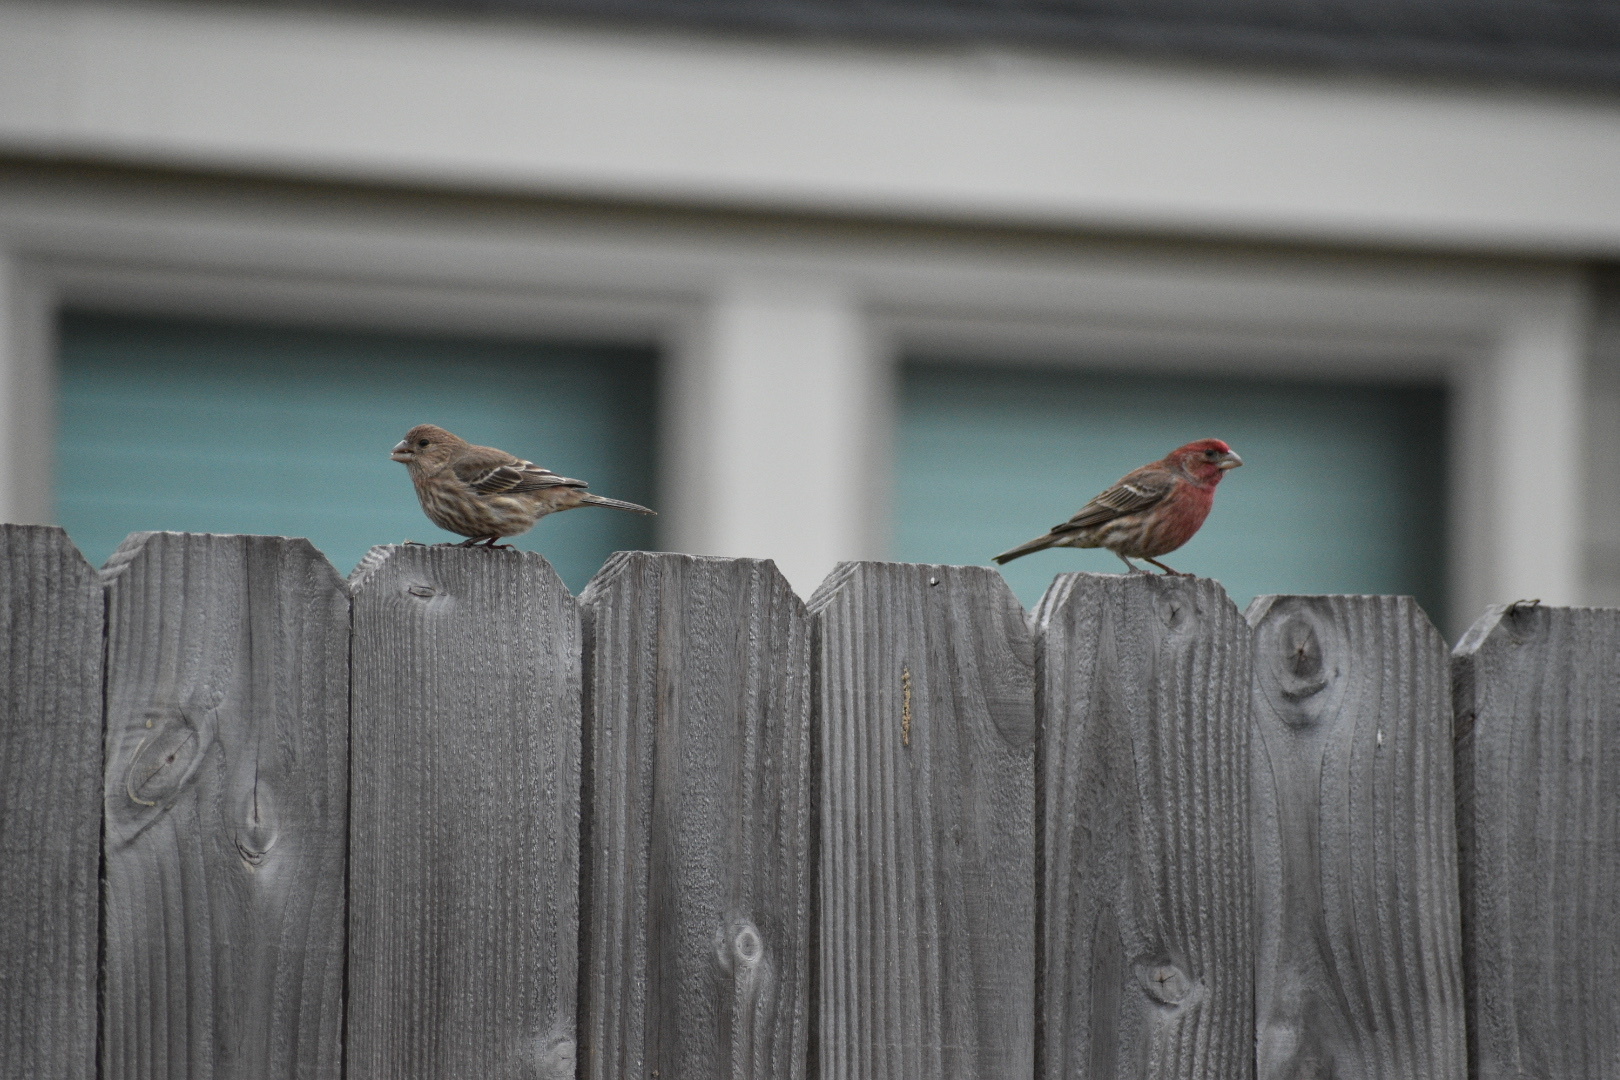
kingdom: Animalia
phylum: Chordata
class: Aves
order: Passeriformes
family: Fringillidae
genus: Haemorhous
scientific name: Haemorhous mexicanus
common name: House finch
